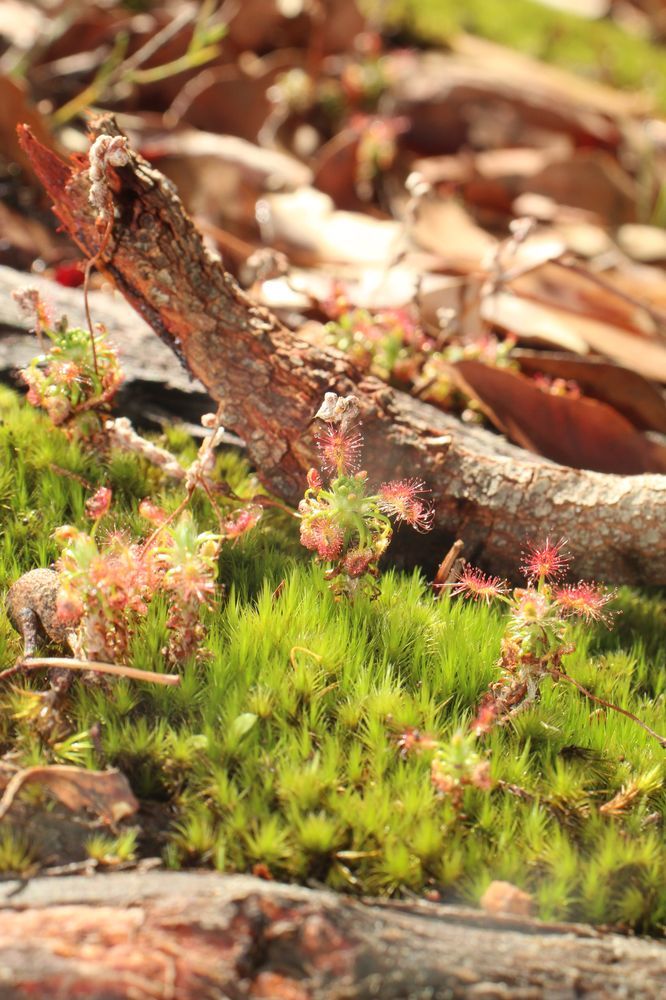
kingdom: Plantae
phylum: Tracheophyta
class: Magnoliopsida
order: Caryophyllales
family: Droseraceae
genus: Drosera
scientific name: Drosera lasiantha
